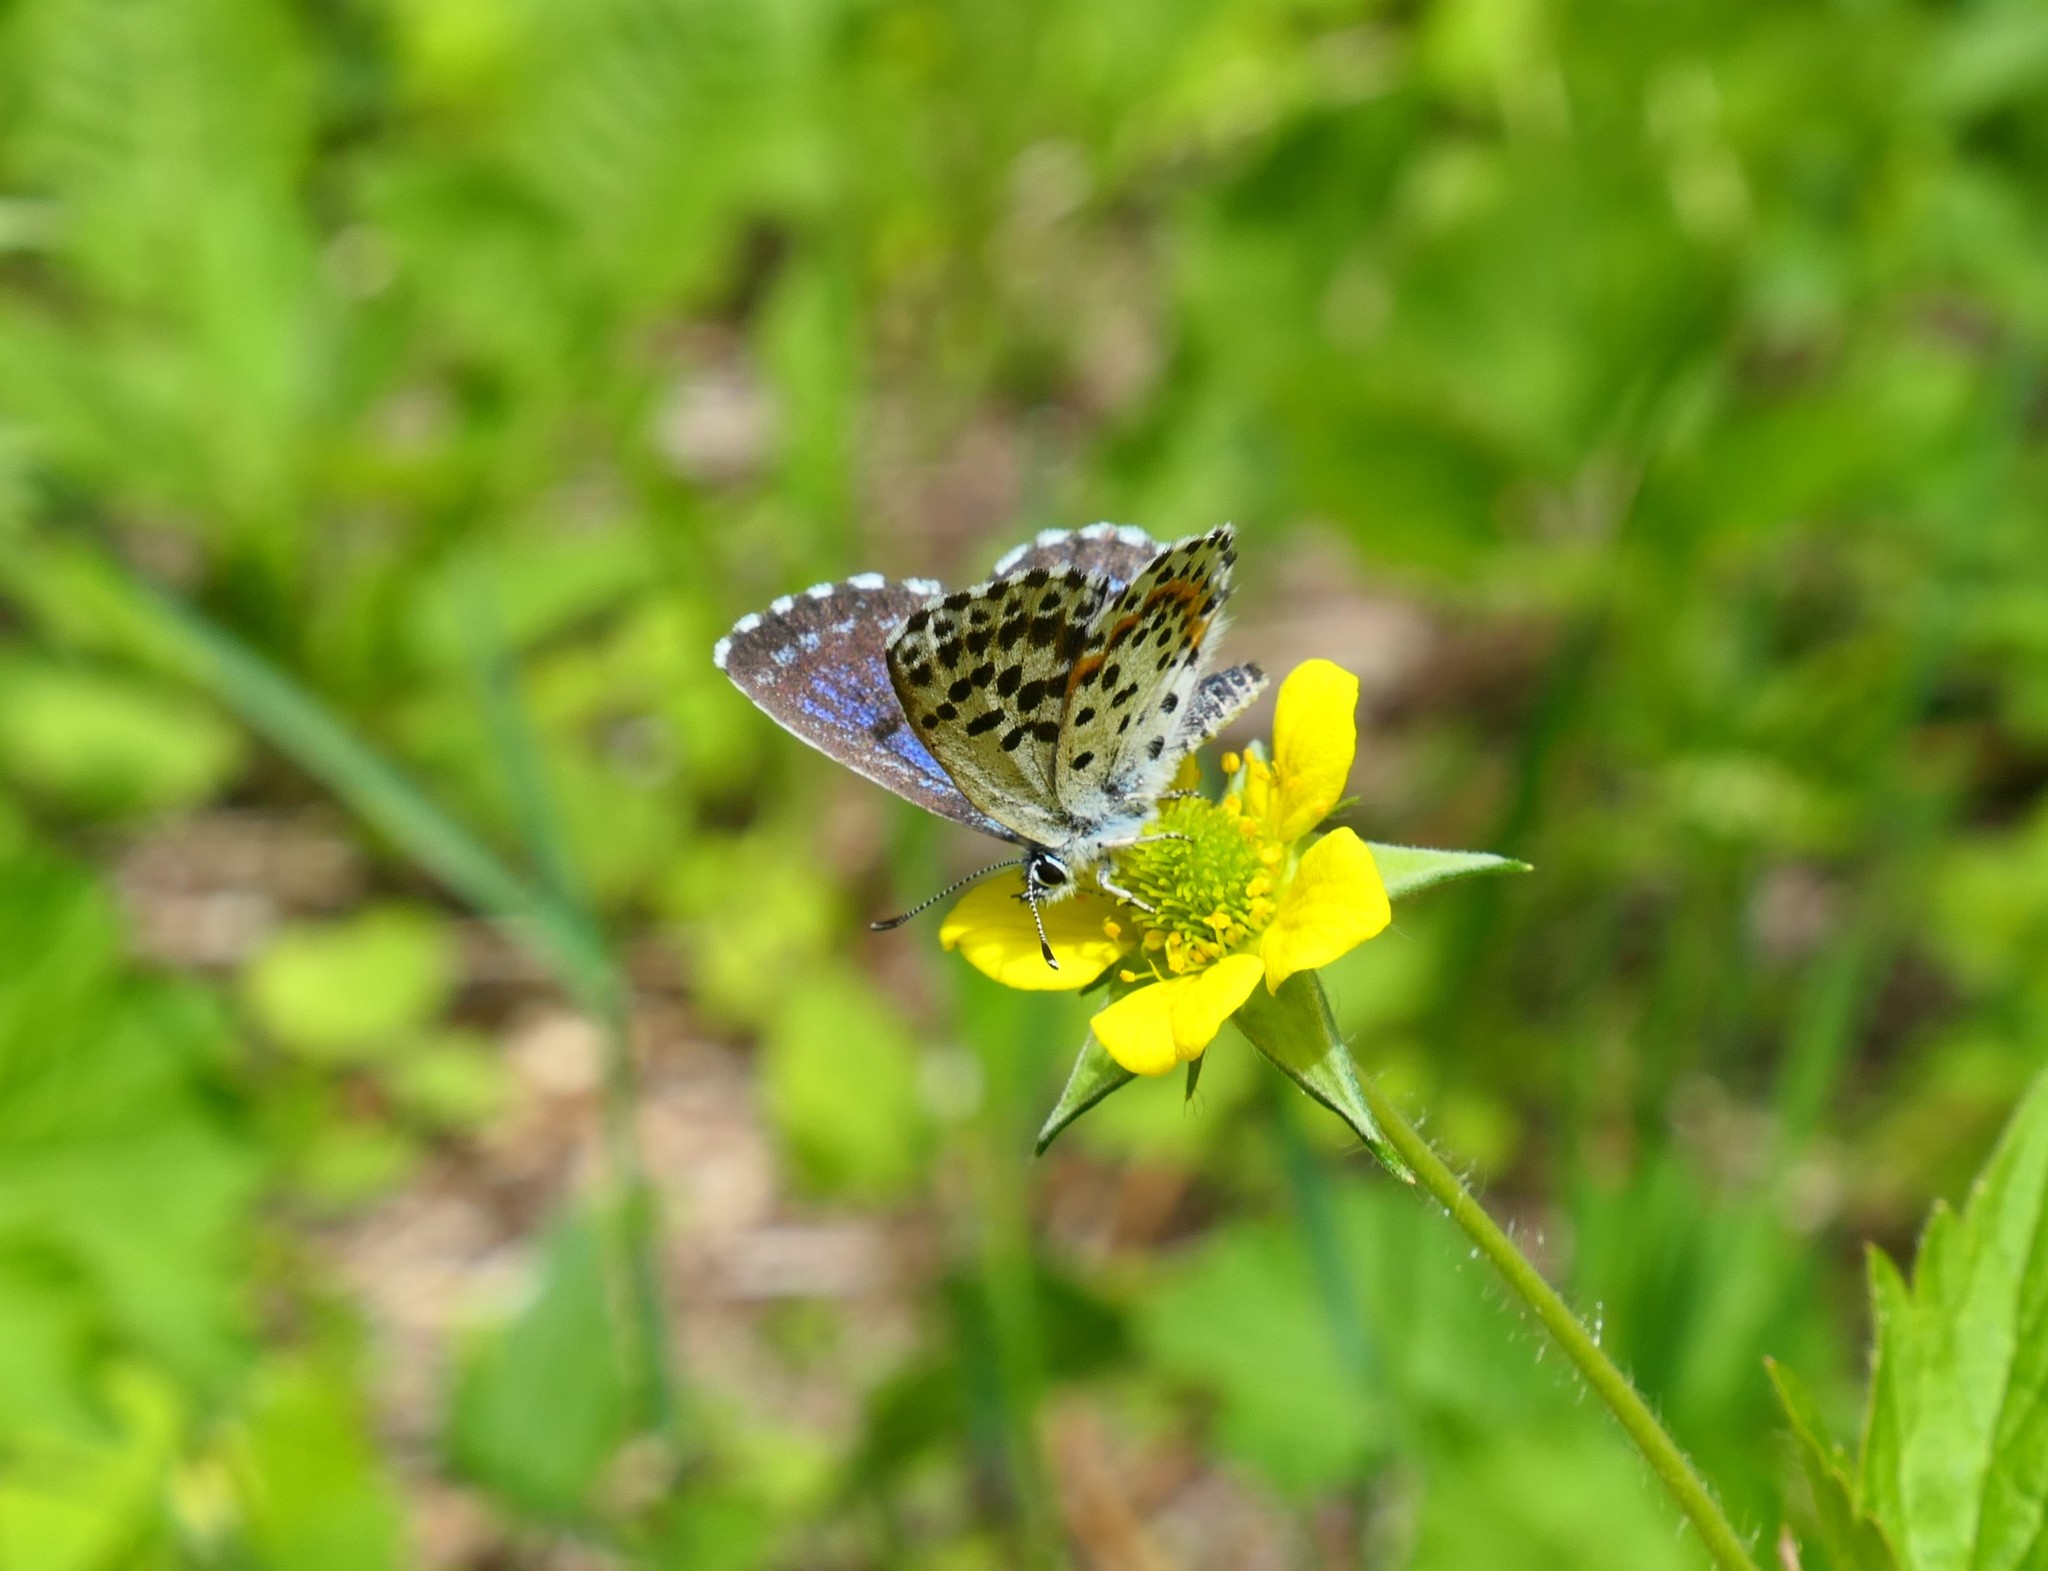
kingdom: Animalia
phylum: Arthropoda
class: Insecta
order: Lepidoptera
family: Lycaenidae
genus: Scolitantides
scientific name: Scolitantides orion
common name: Chequered blue
